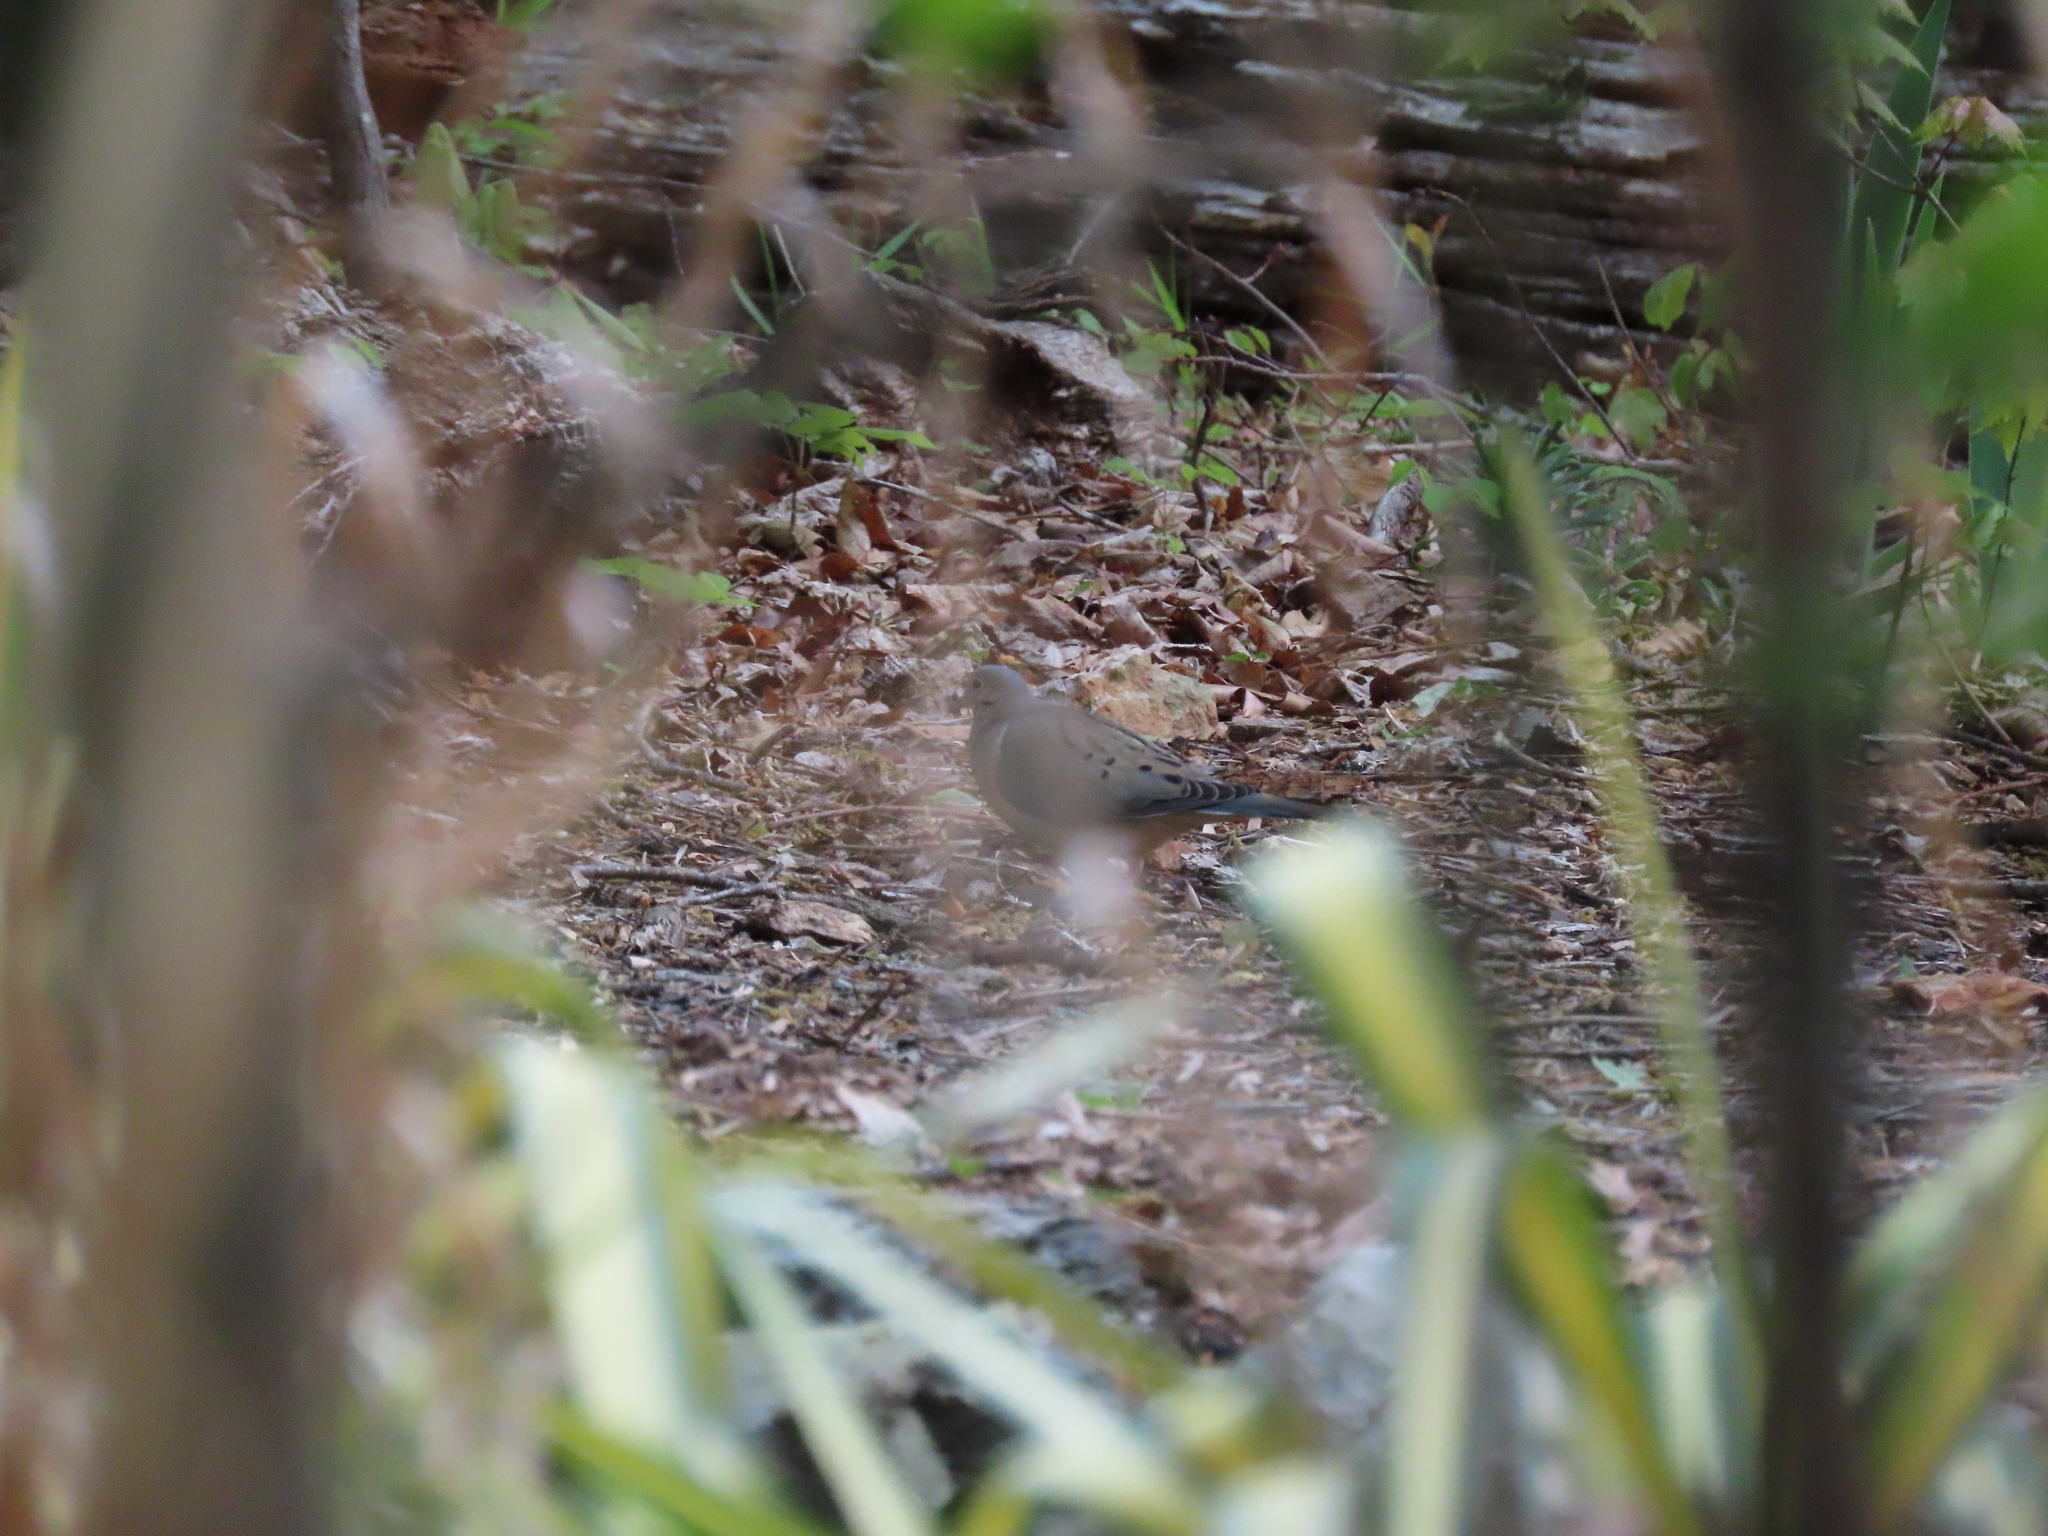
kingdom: Animalia
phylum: Chordata
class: Aves
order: Columbiformes
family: Columbidae
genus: Zenaida
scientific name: Zenaida macroura
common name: Mourning dove
